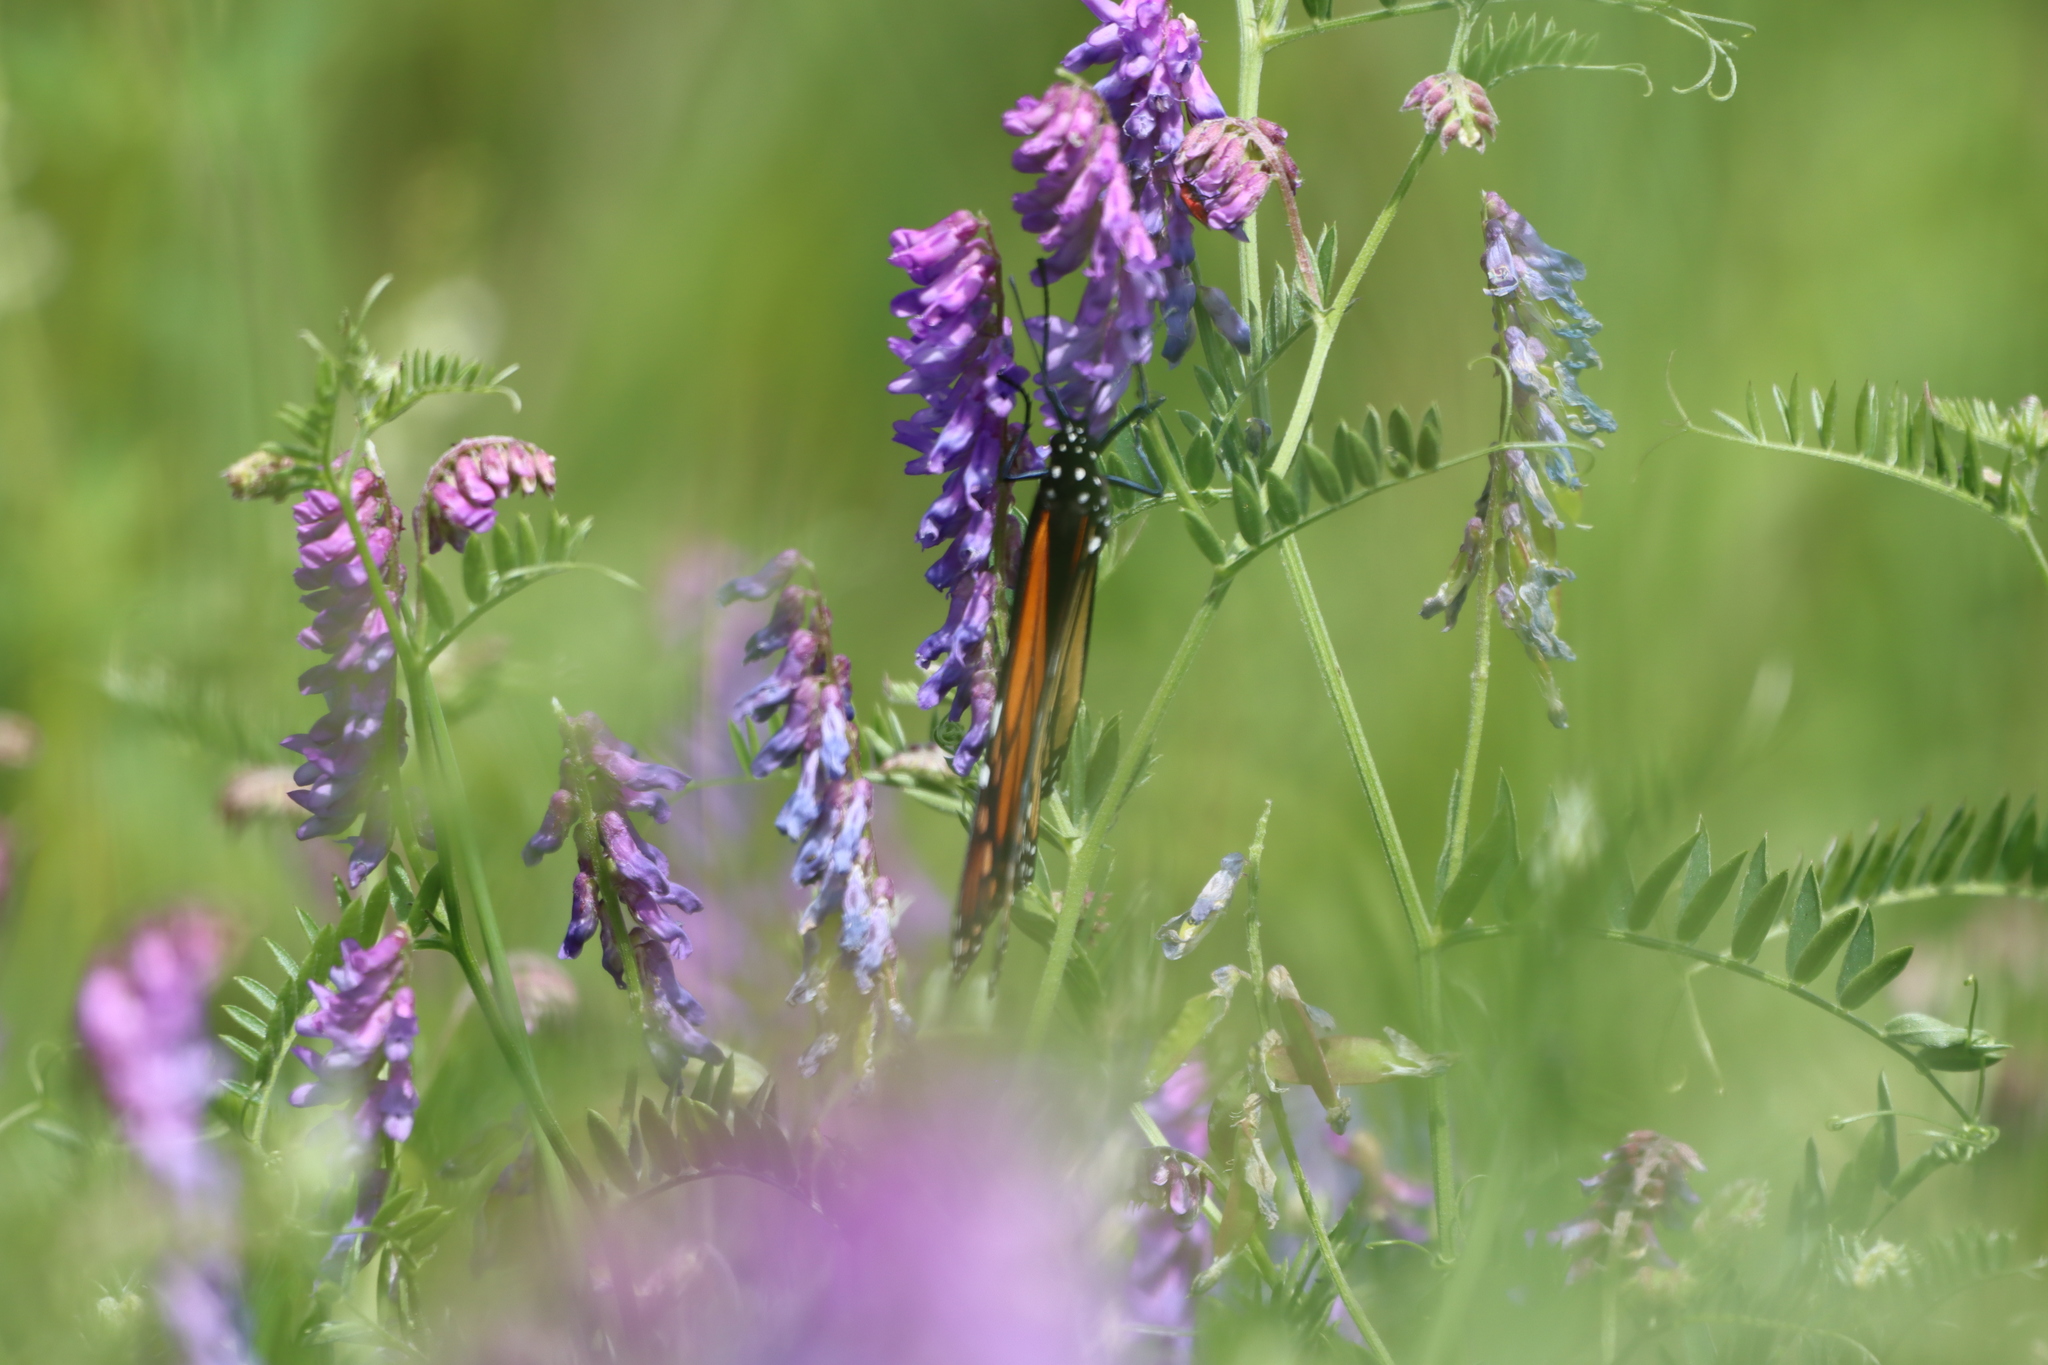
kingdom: Plantae
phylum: Tracheophyta
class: Magnoliopsida
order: Fabales
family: Fabaceae
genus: Vicia
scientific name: Vicia cracca
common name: Bird vetch
